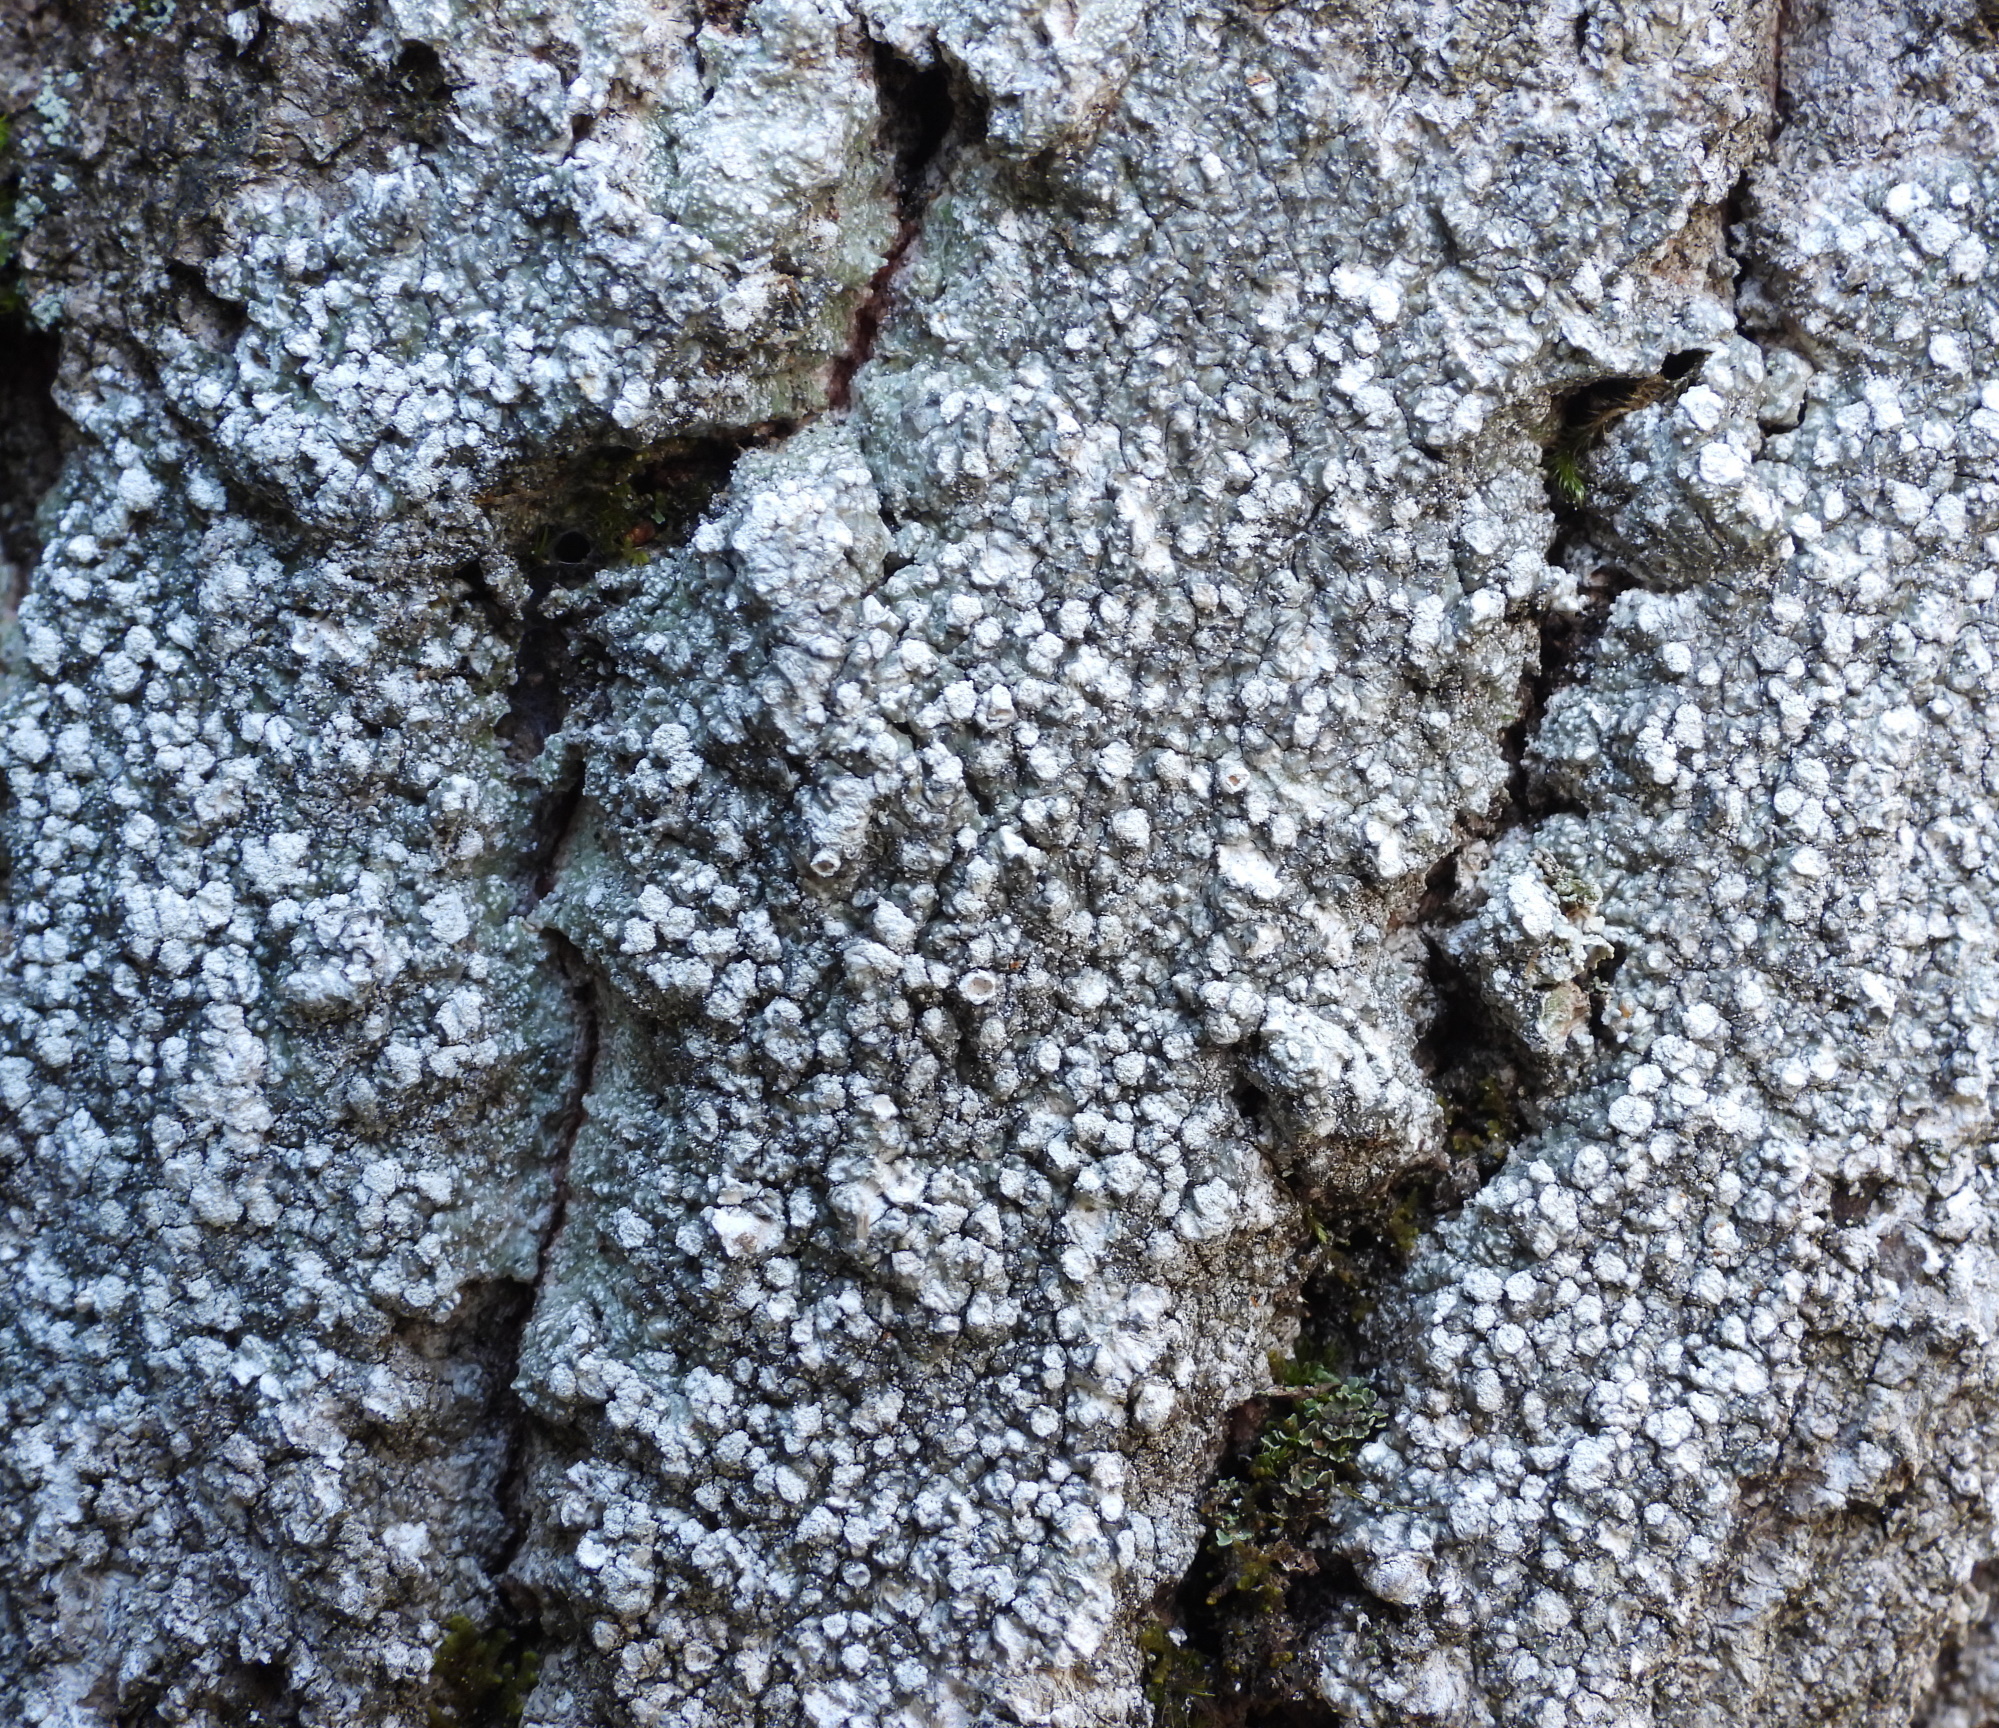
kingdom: Fungi
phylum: Ascomycota
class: Lecanoromycetes
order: Pertusariales
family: Pertusariaceae
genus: Lepra
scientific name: Lepra amara
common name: Bitter wart lichen
